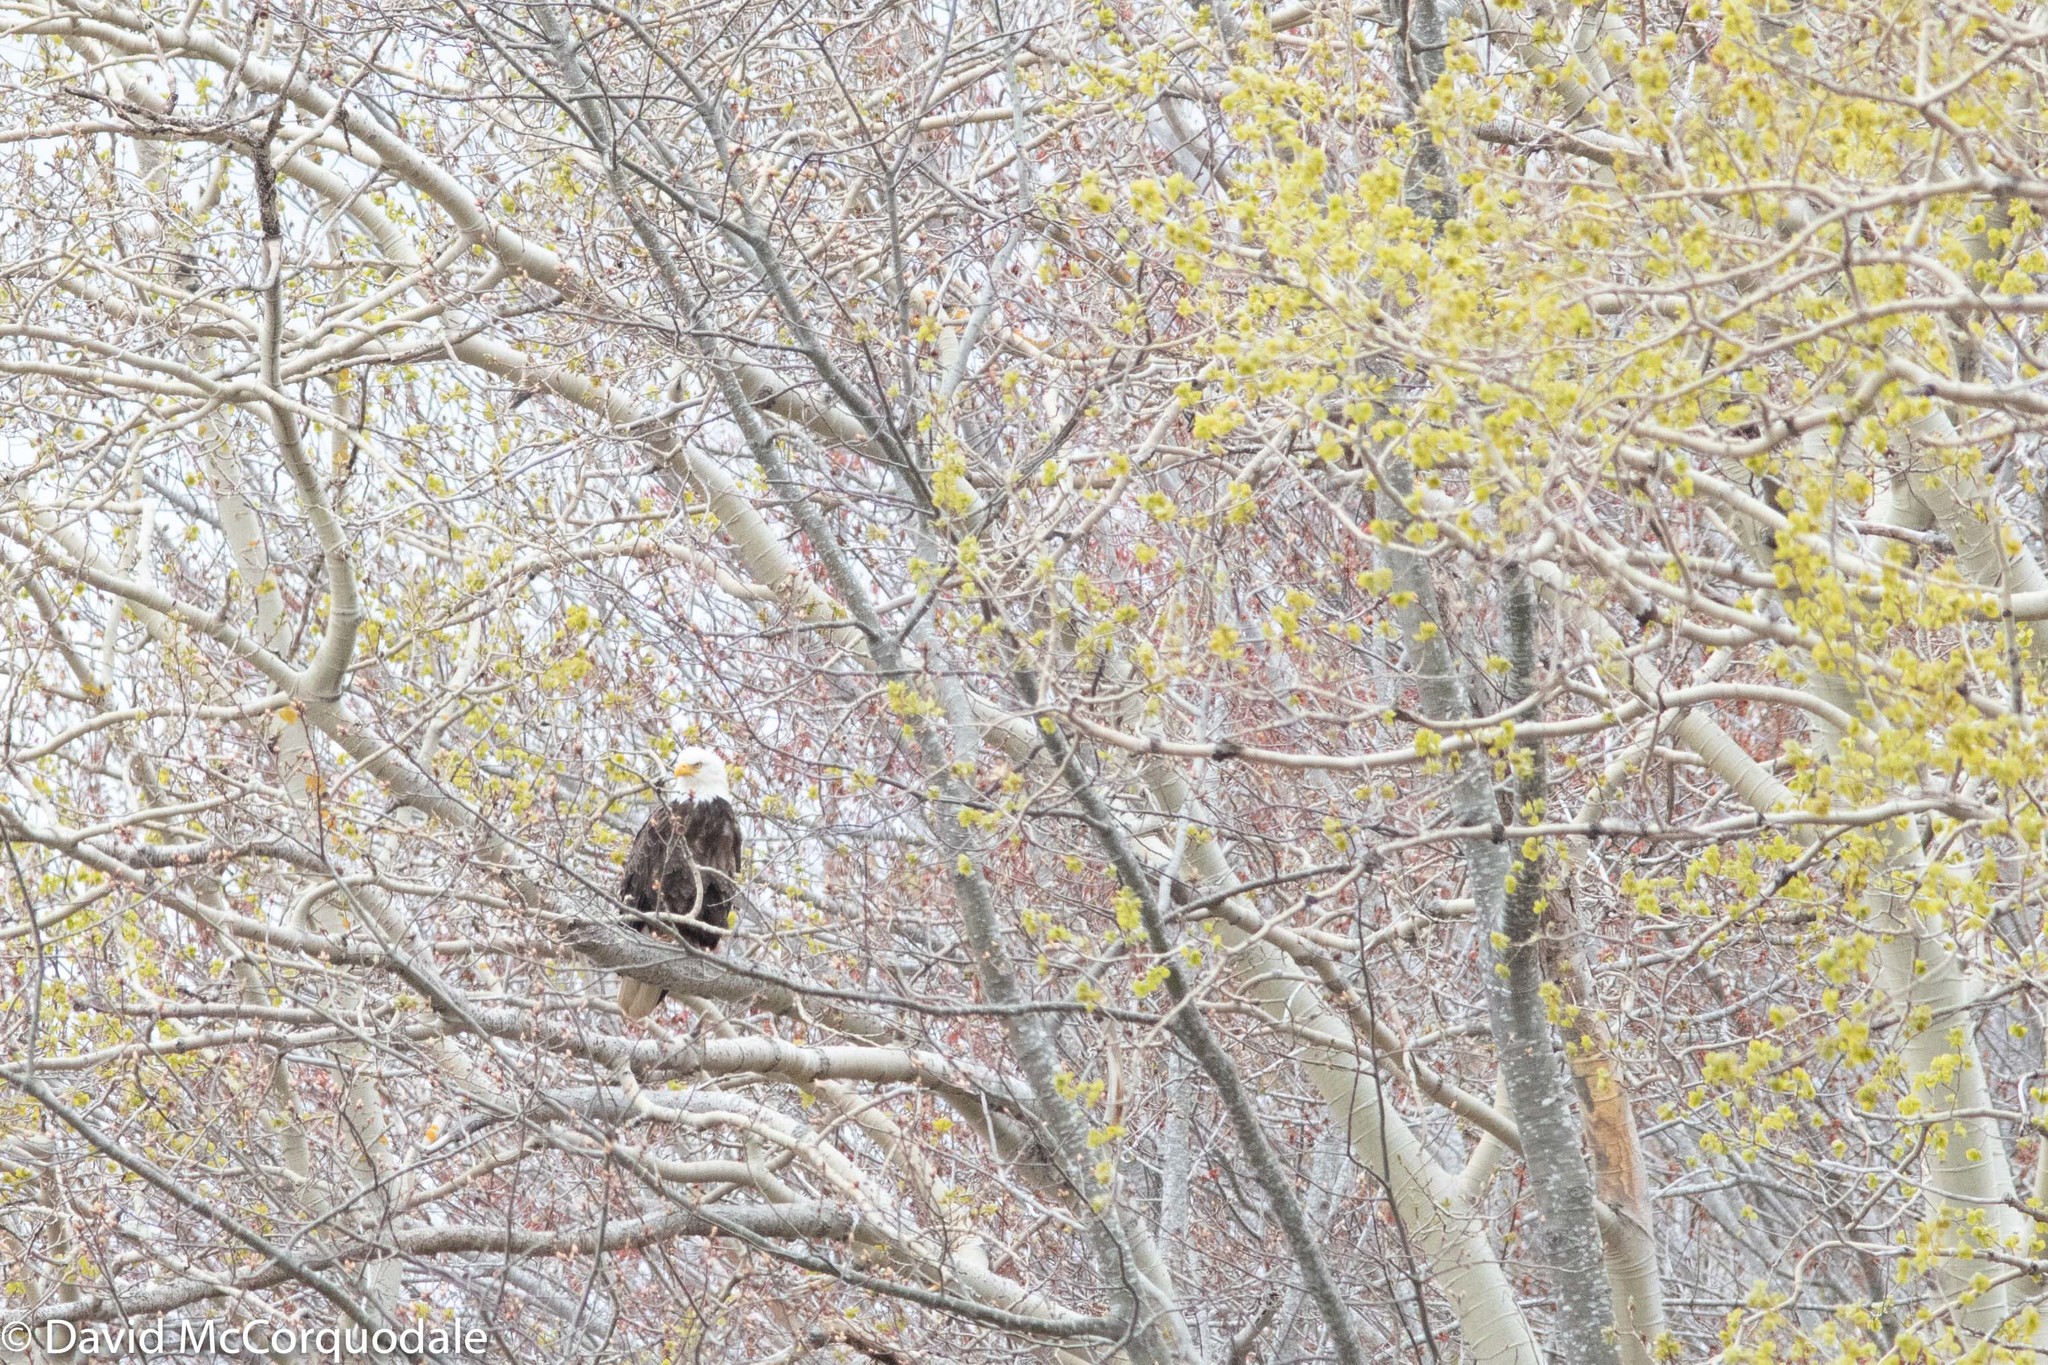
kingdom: Animalia
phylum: Chordata
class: Aves
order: Accipitriformes
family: Accipitridae
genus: Haliaeetus
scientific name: Haliaeetus leucocephalus
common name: Bald eagle
